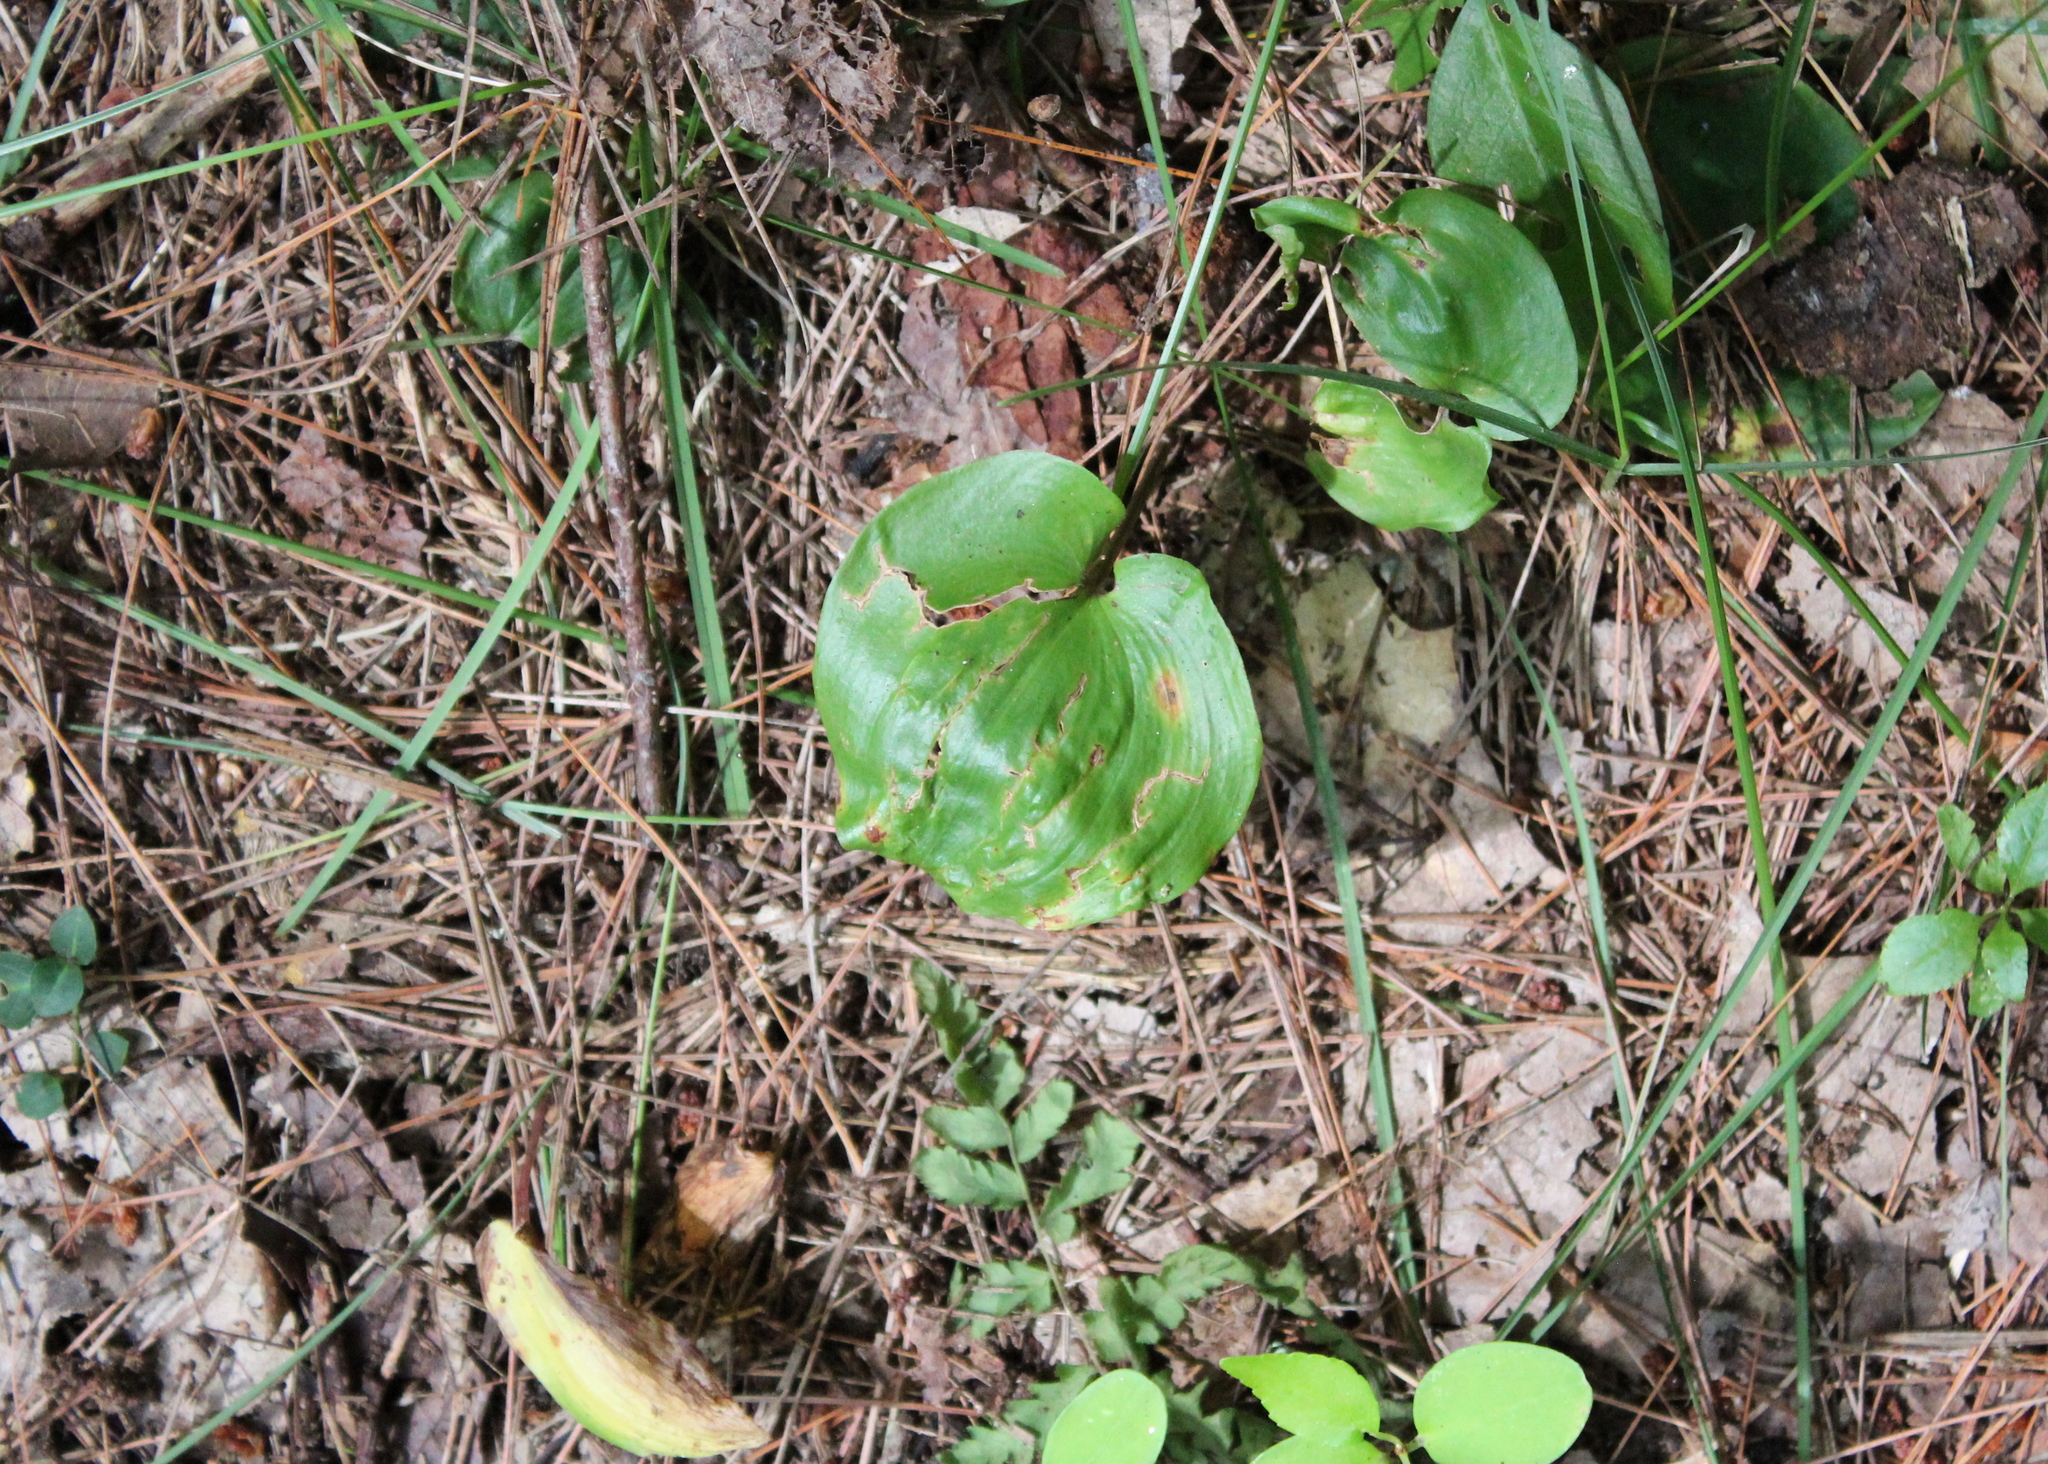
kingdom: Plantae
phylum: Tracheophyta
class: Liliopsida
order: Asparagales
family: Asparagaceae
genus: Maianthemum
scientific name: Maianthemum canadense
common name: False lily-of-the-valley
